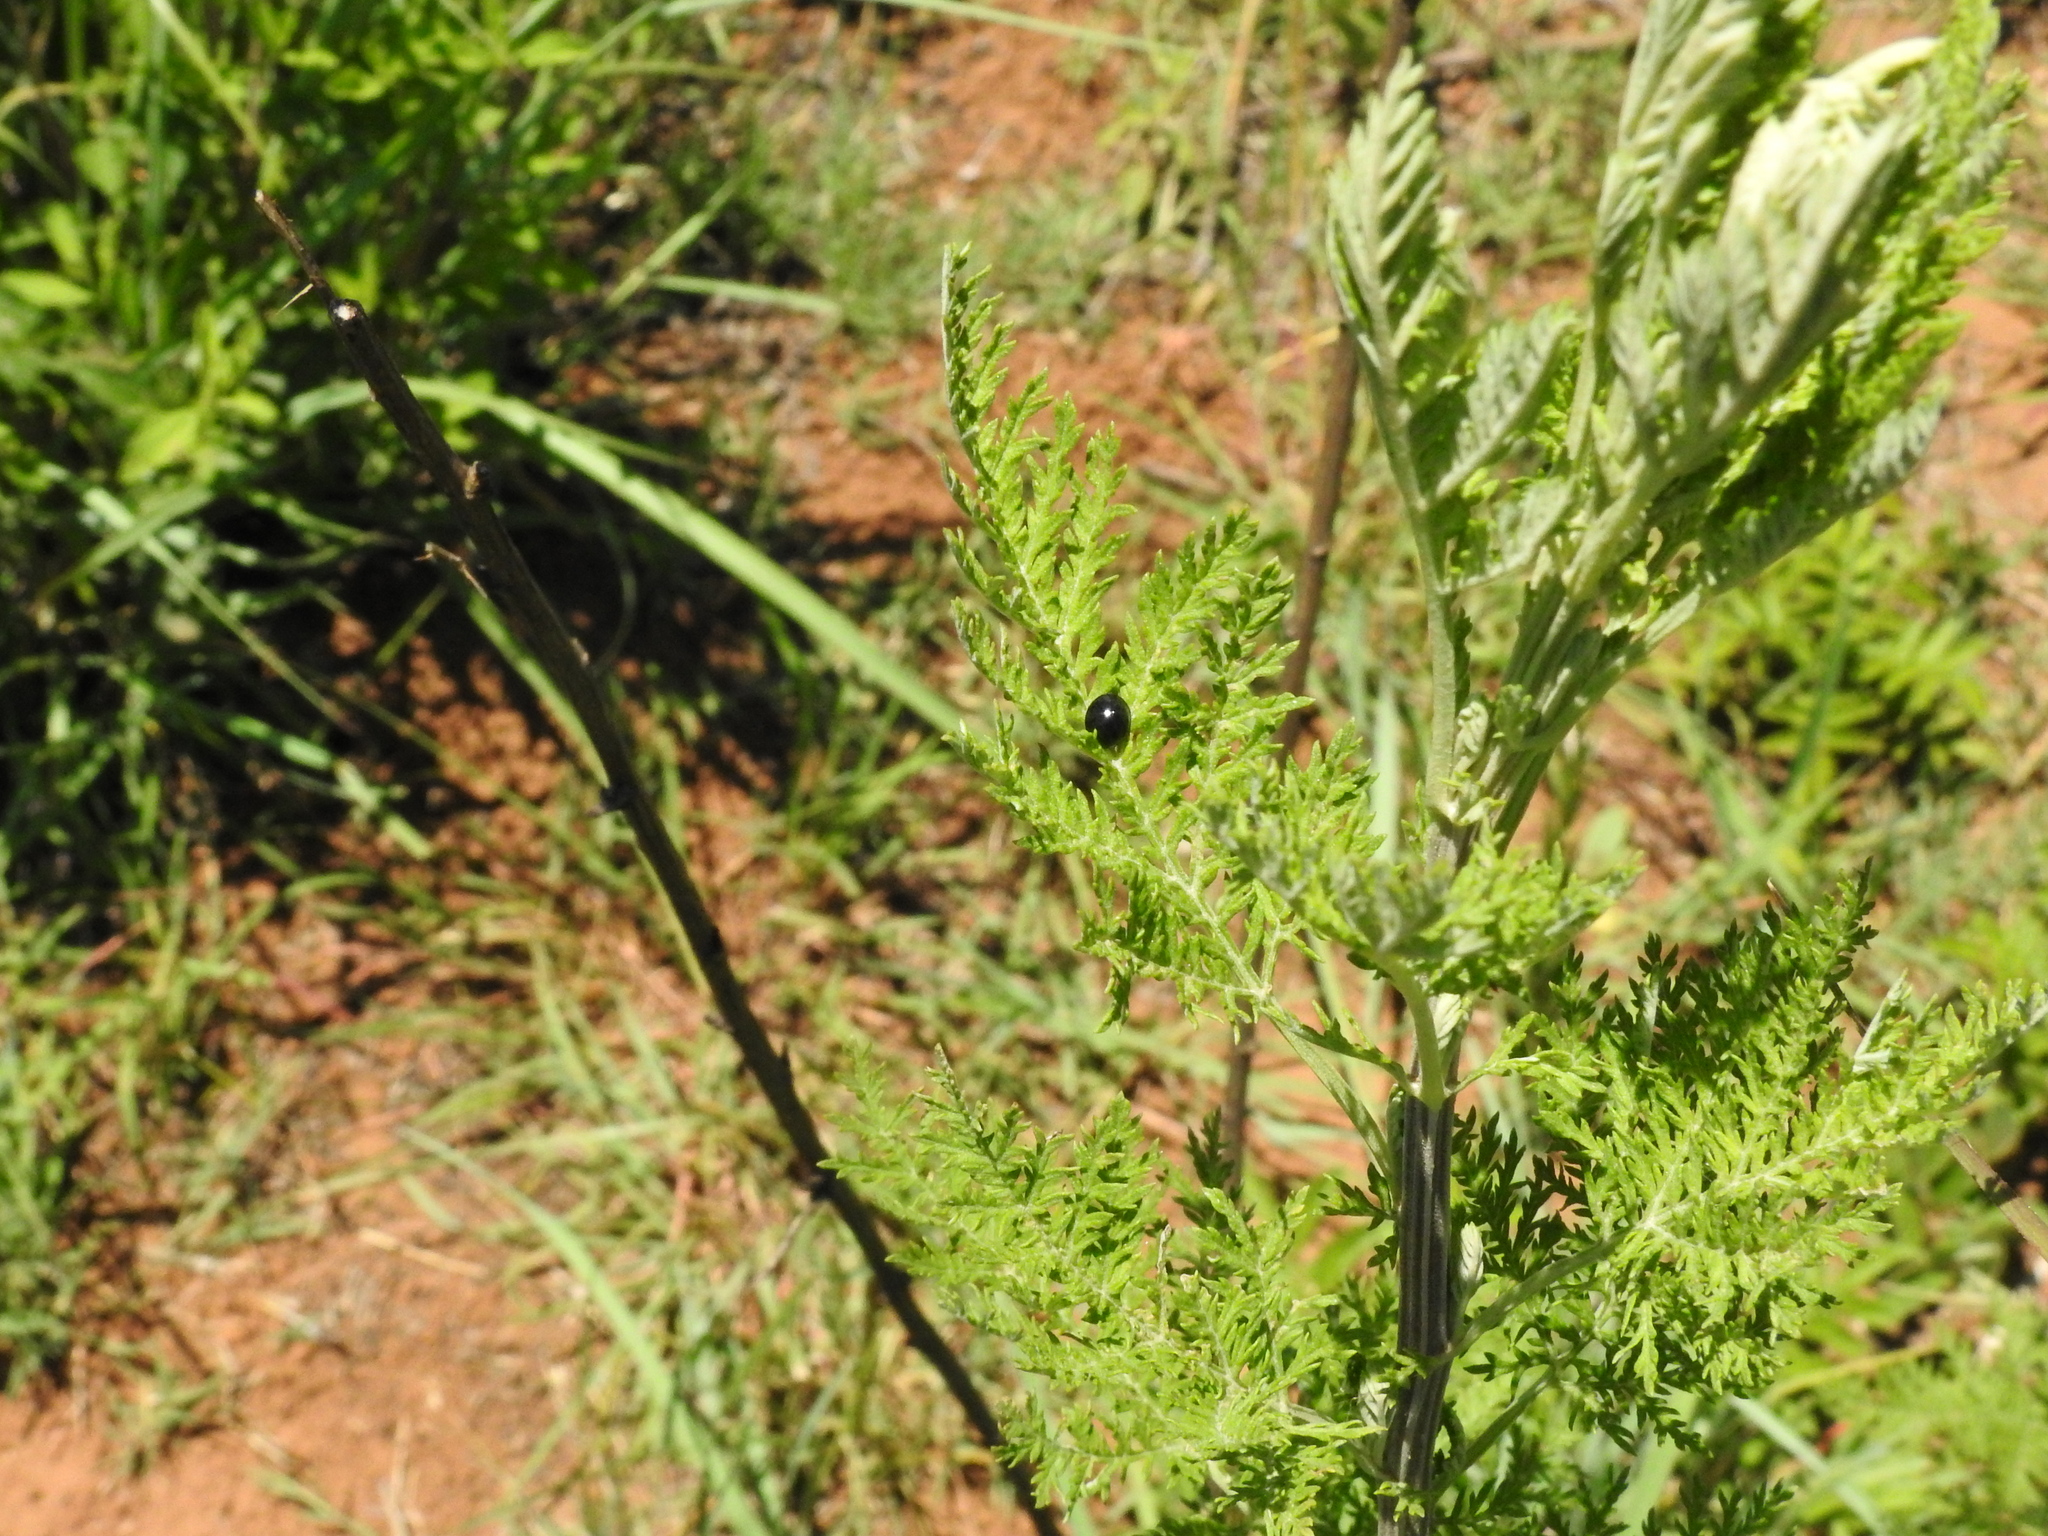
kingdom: Plantae
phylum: Tracheophyta
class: Magnoliopsida
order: Asterales
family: Asteraceae
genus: Artemisia
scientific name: Artemisia afra
